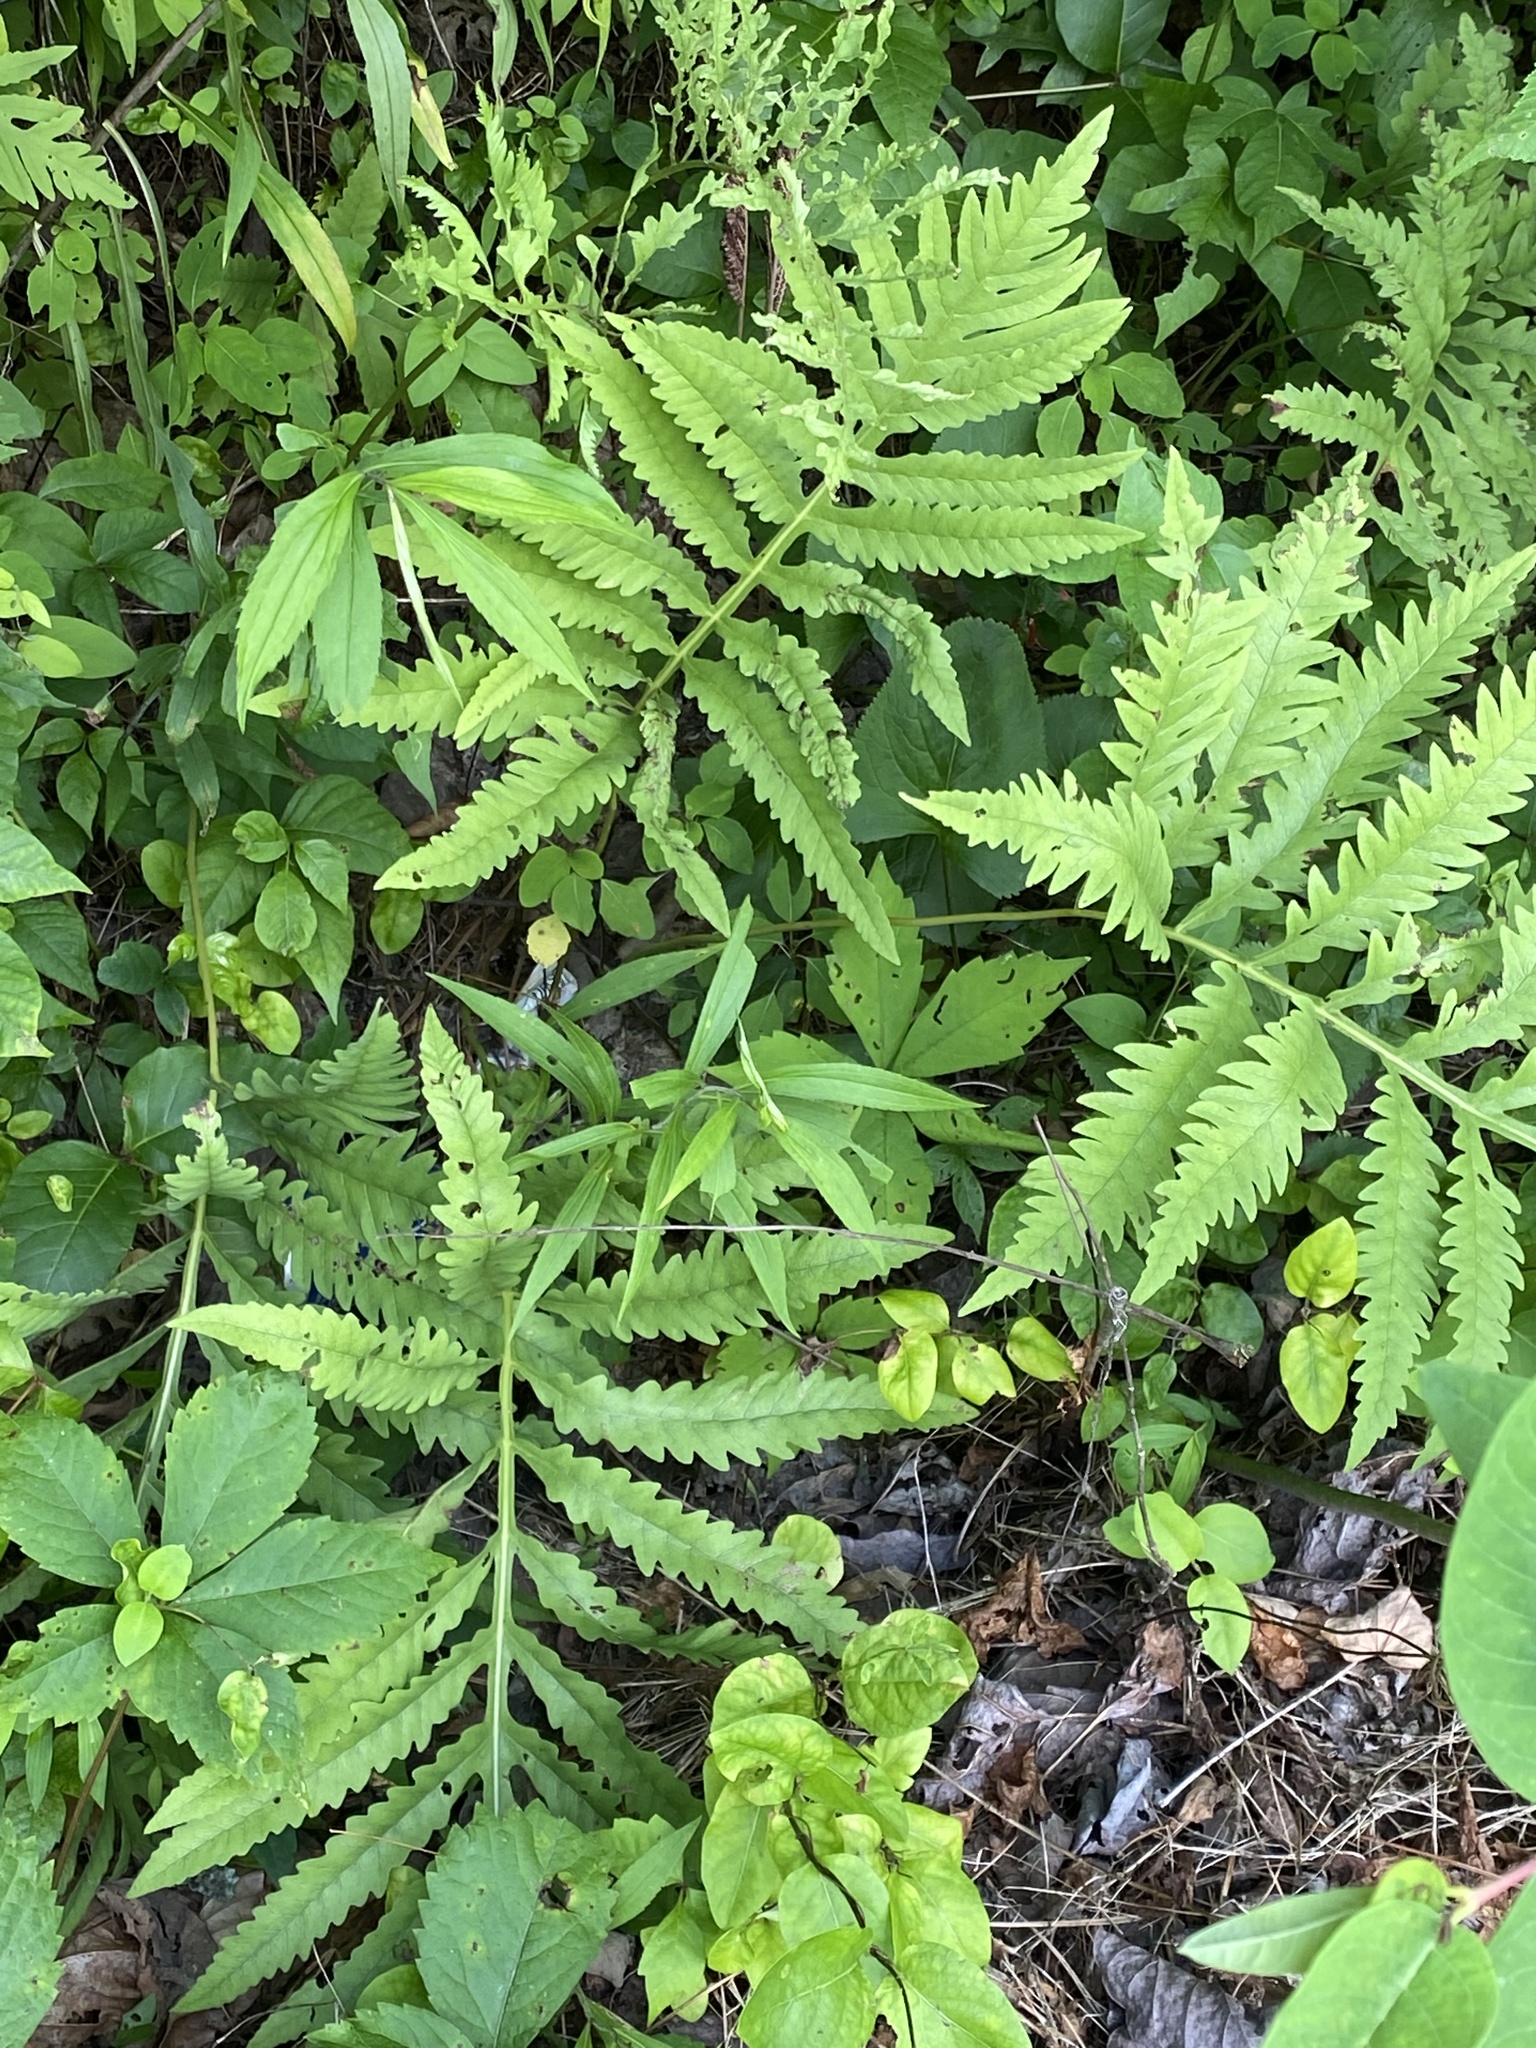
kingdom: Plantae
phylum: Tracheophyta
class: Polypodiopsida
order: Polypodiales
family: Onocleaceae
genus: Onoclea
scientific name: Onoclea sensibilis
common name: Sensitive fern
